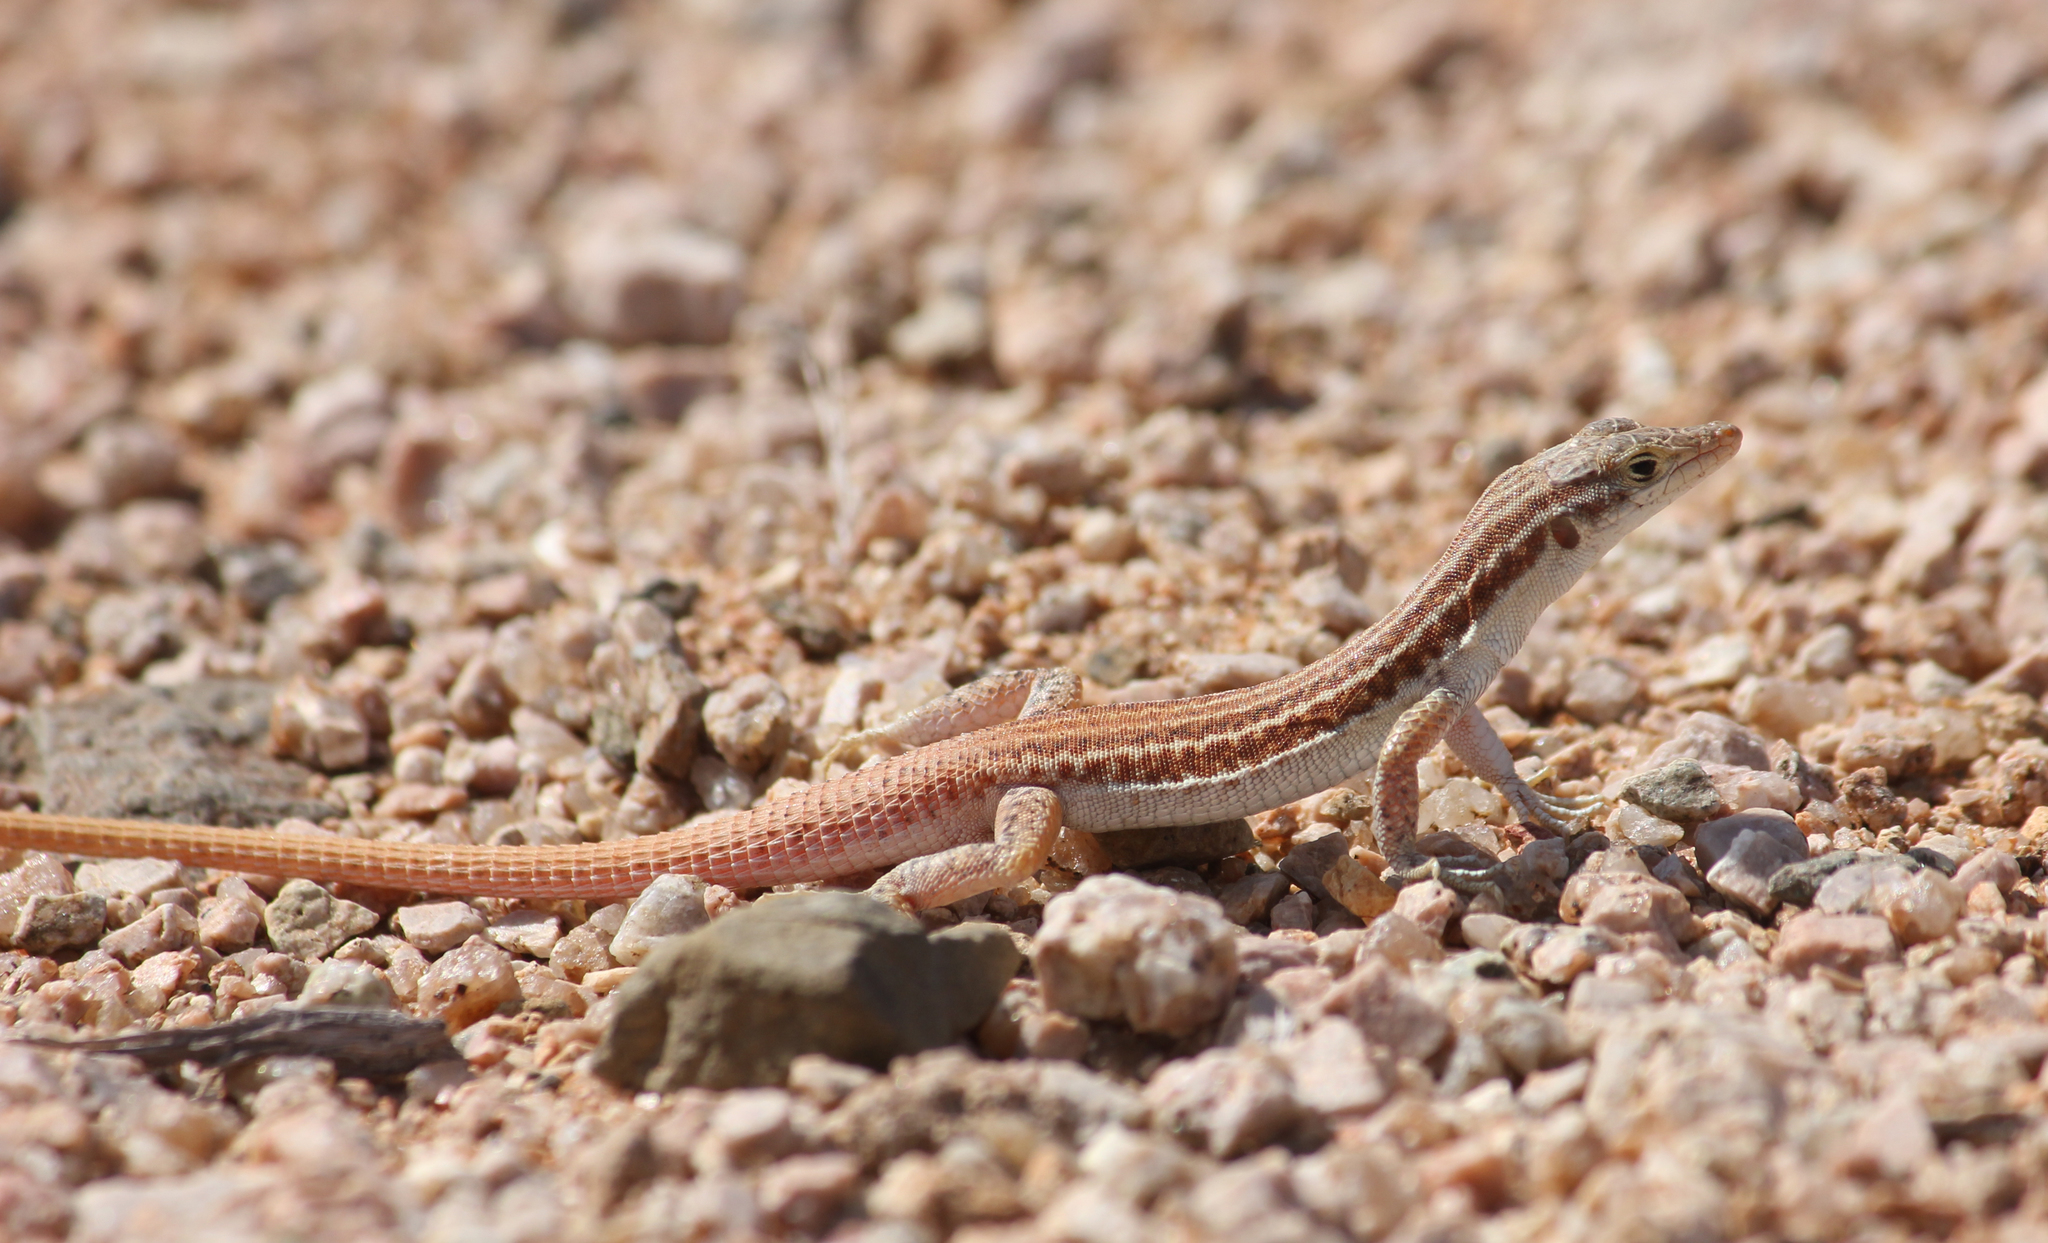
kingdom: Animalia
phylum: Chordata
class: Squamata
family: Lacertidae
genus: Pedioplanis
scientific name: Pedioplanis namaquensis
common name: Namaqua sand lizard
